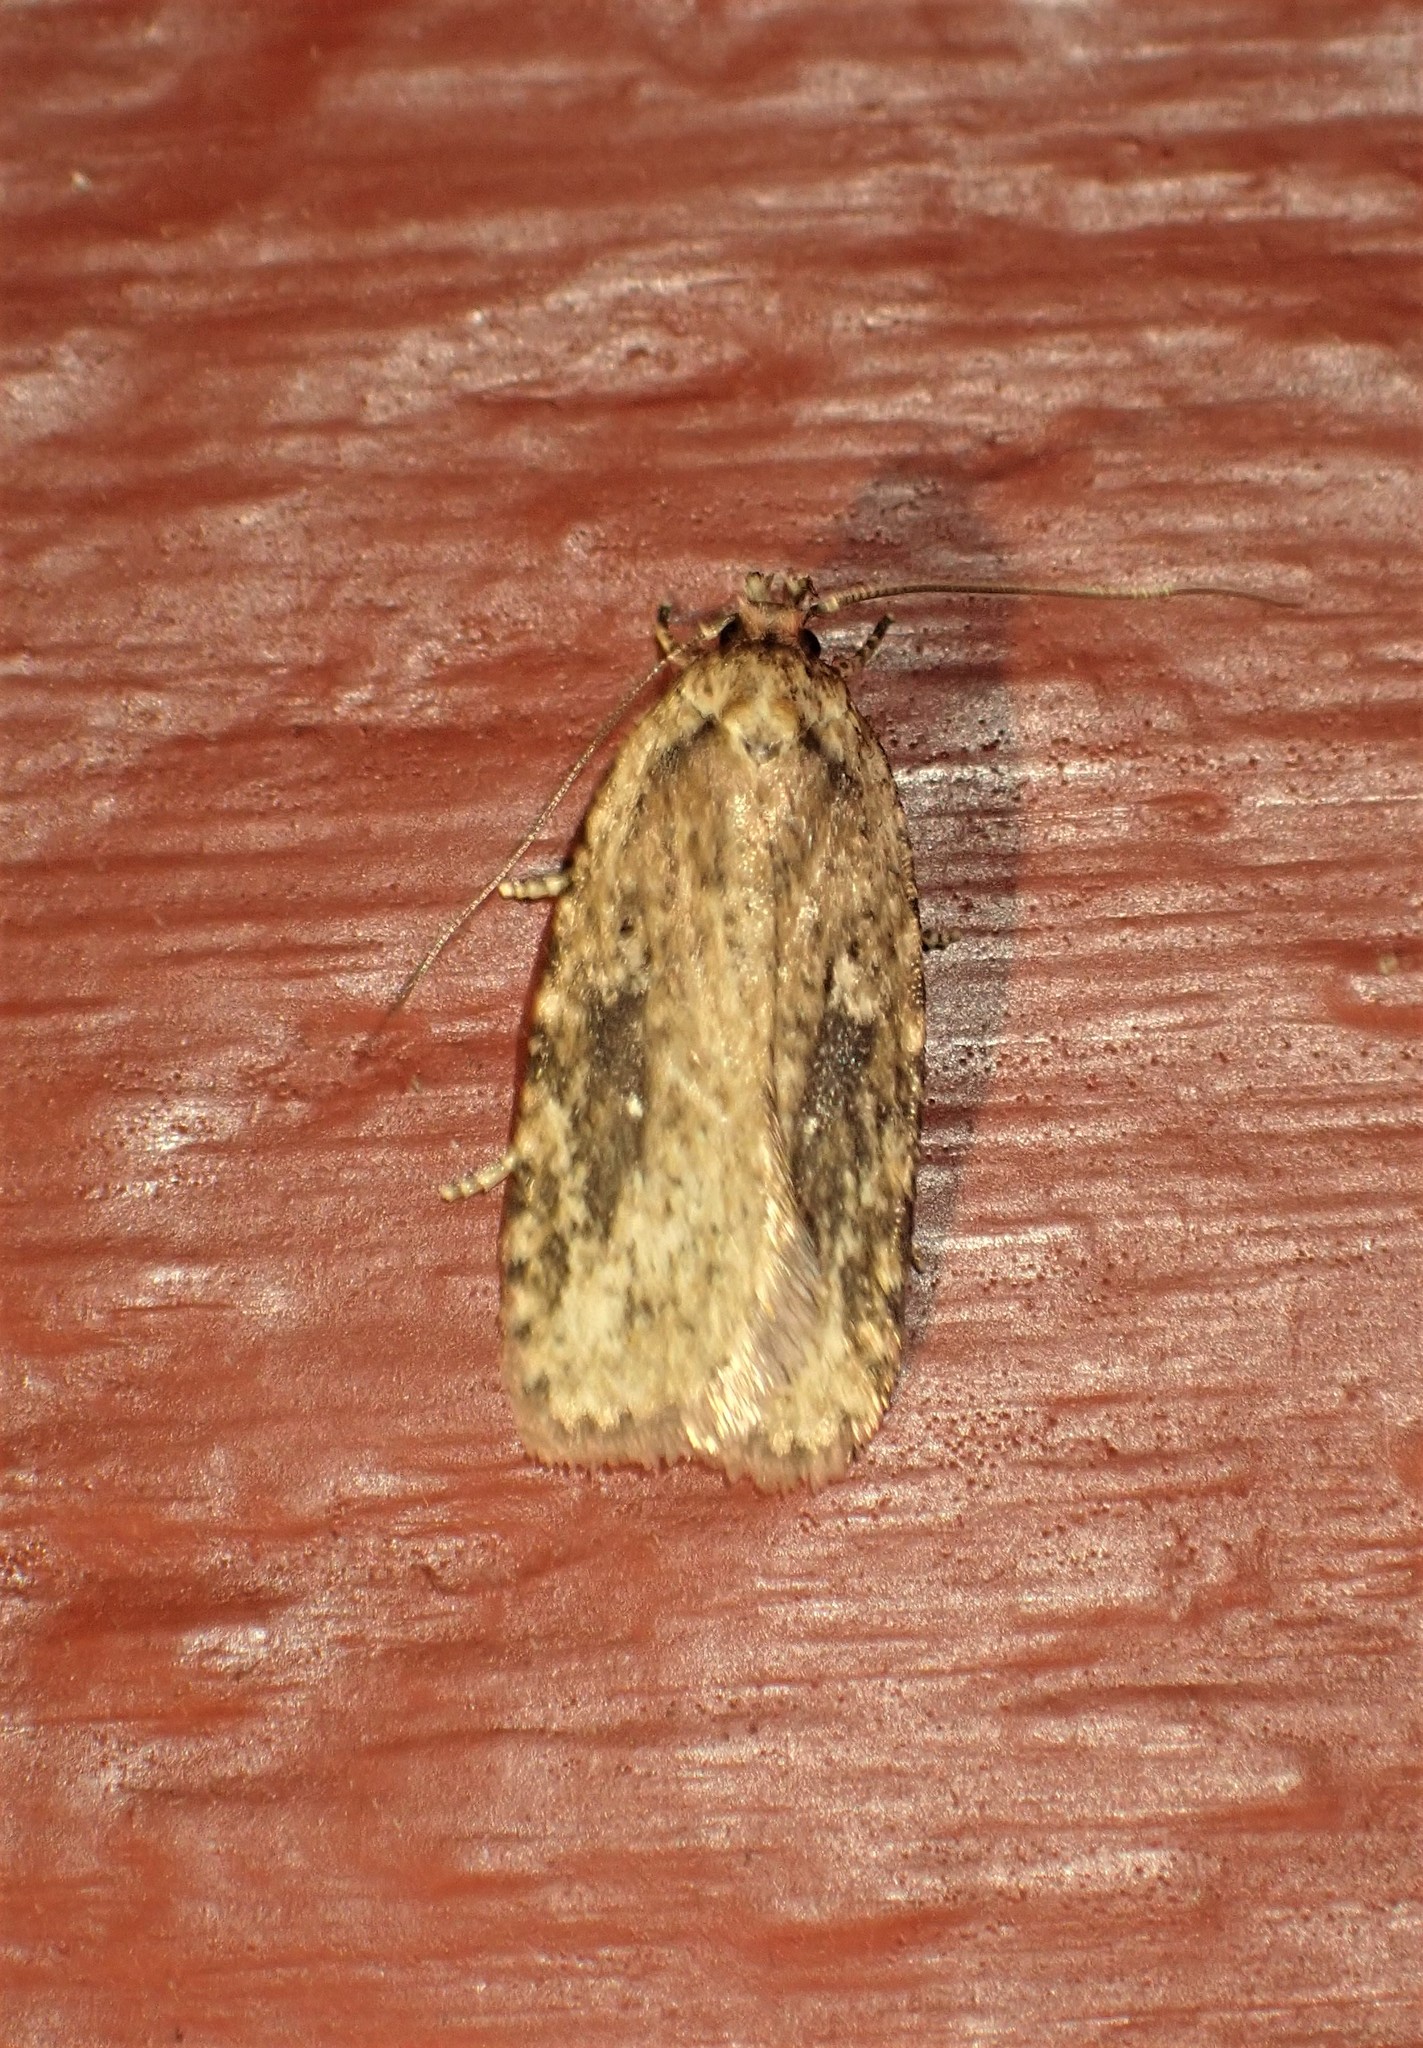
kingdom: Animalia
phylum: Arthropoda
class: Insecta
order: Lepidoptera
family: Depressariidae
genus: Agonopterix
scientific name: Agonopterix pulvipennella
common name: Goldenrod leafffolder
